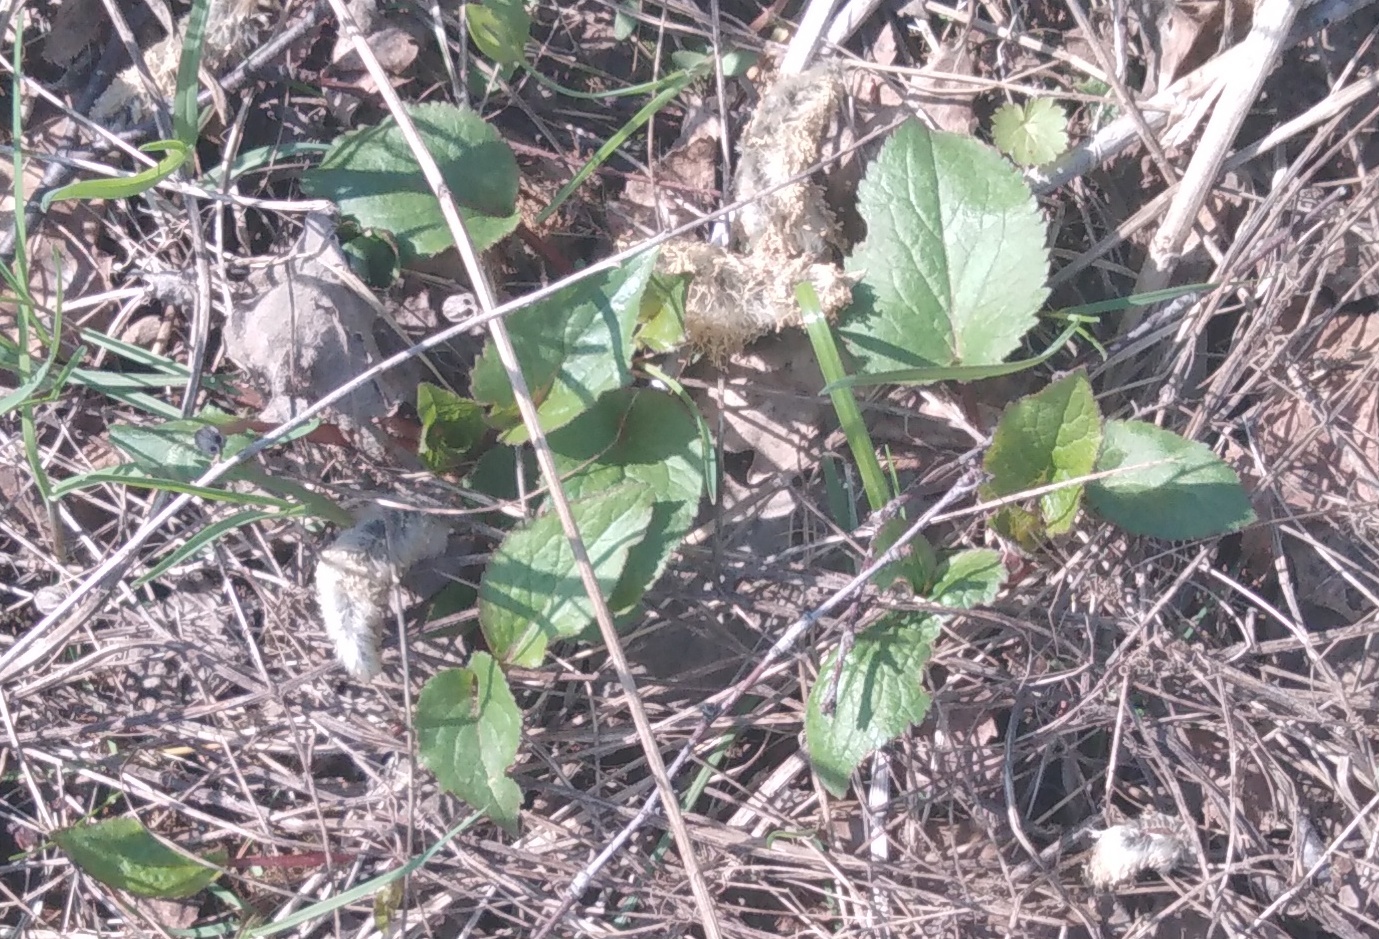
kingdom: Plantae
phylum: Tracheophyta
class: Magnoliopsida
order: Asterales
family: Campanulaceae
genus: Campanula
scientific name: Campanula rapunculoides
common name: Creeping bellflower
